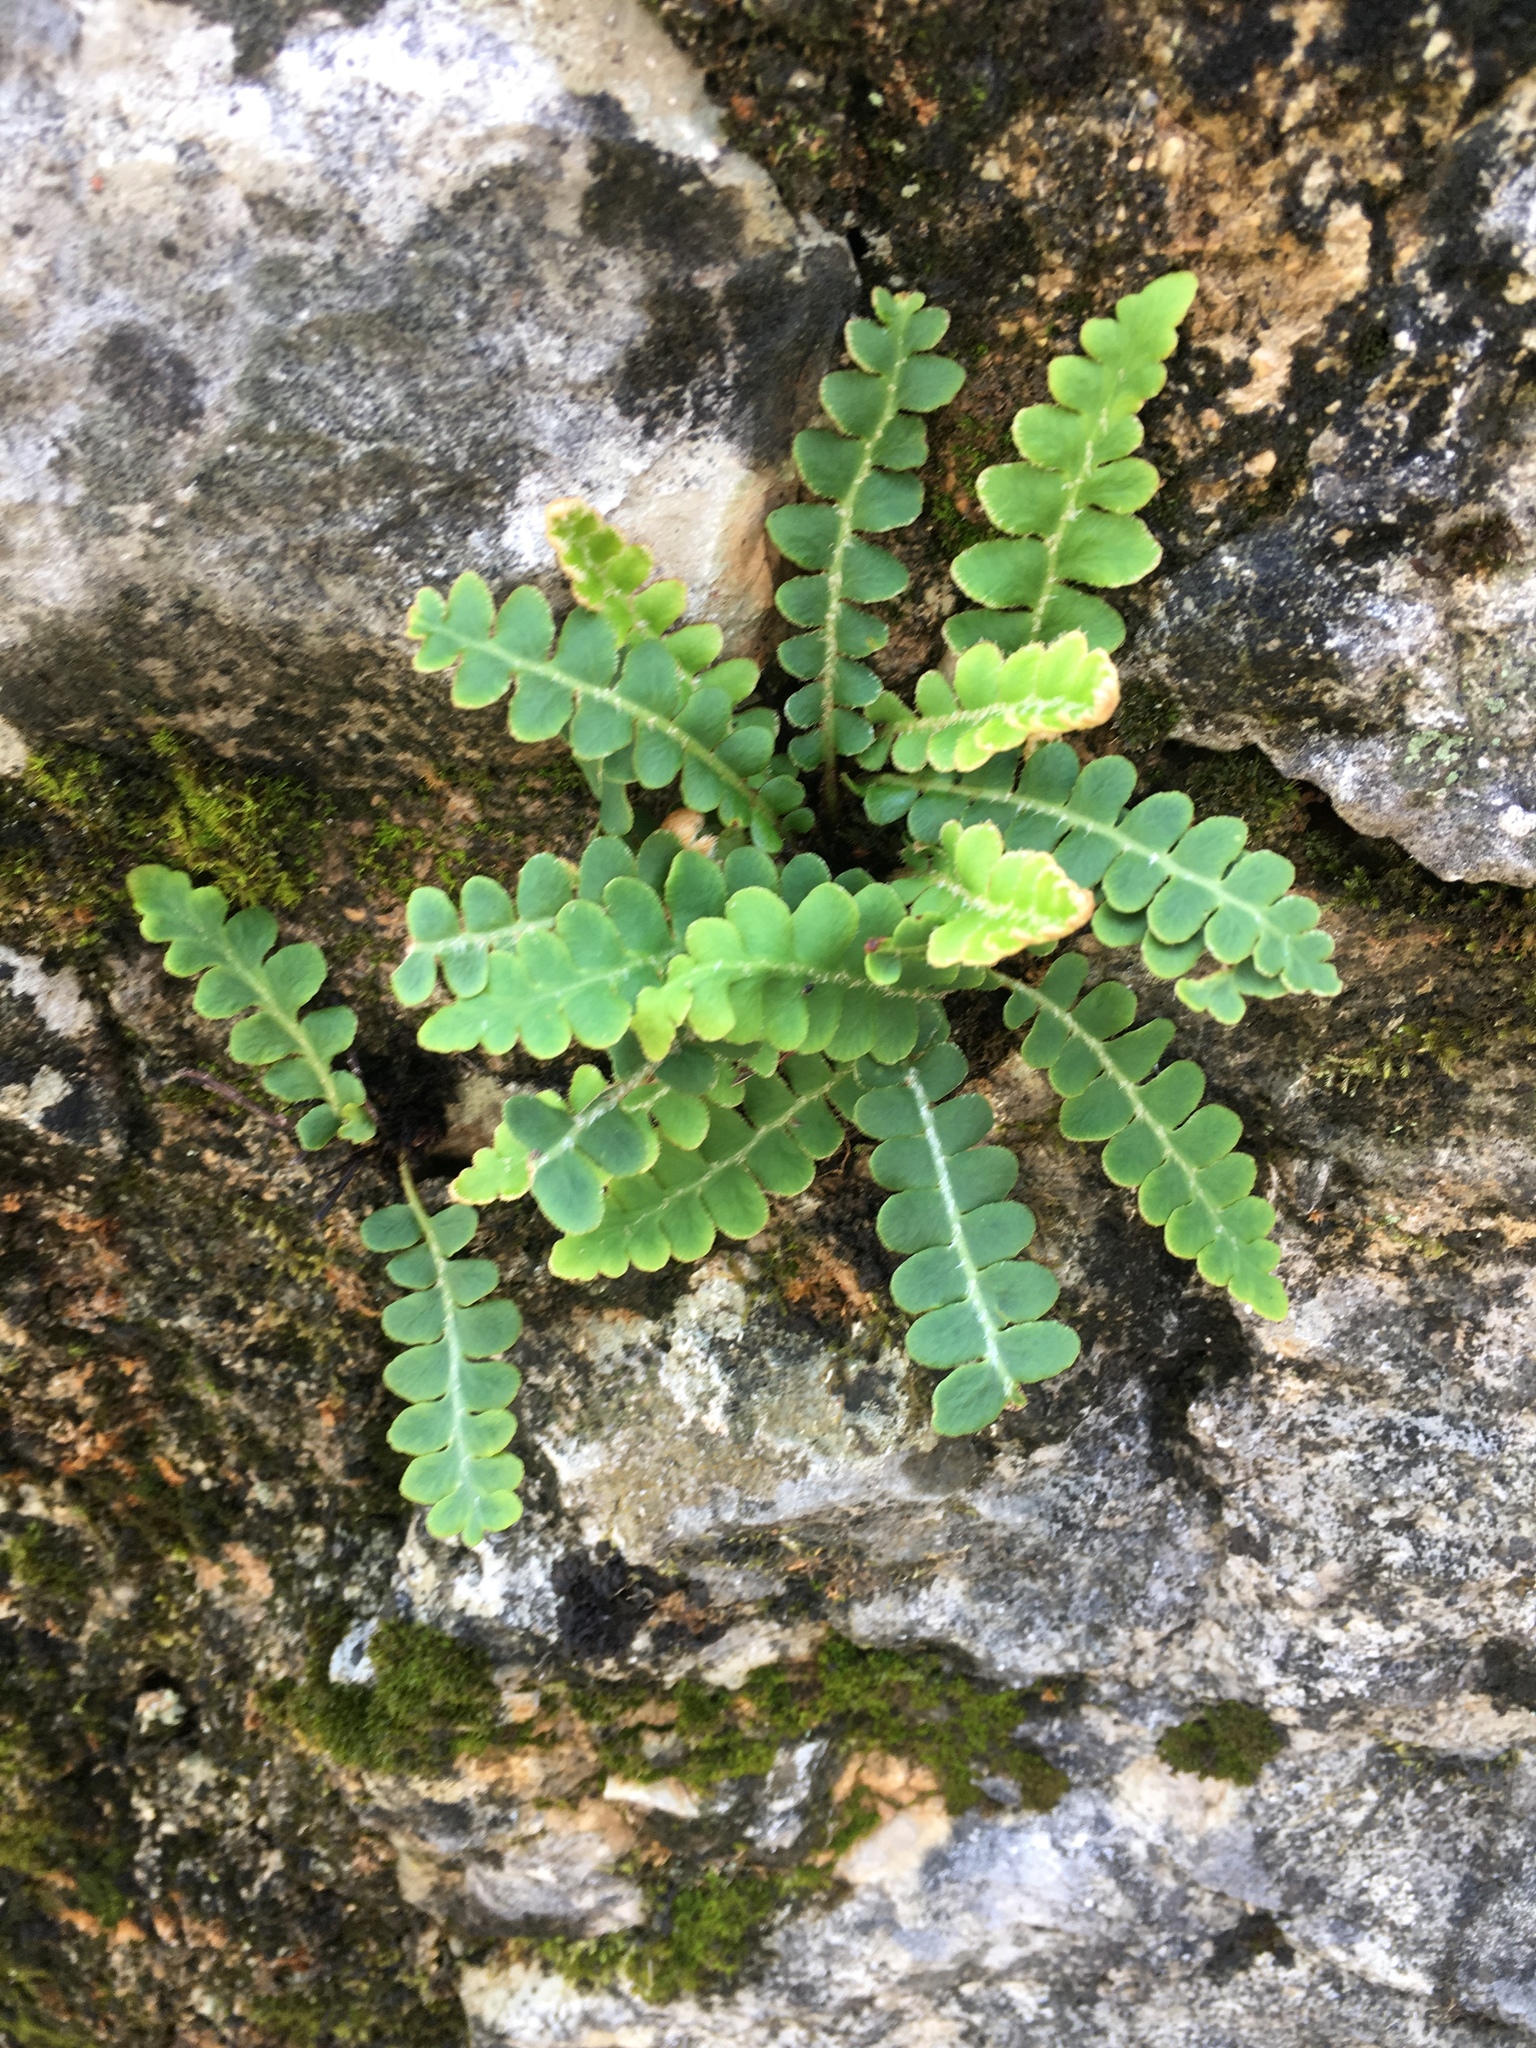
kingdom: Plantae
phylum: Tracheophyta
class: Polypodiopsida
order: Polypodiales
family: Aspleniaceae
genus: Asplenium
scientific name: Asplenium ceterach
